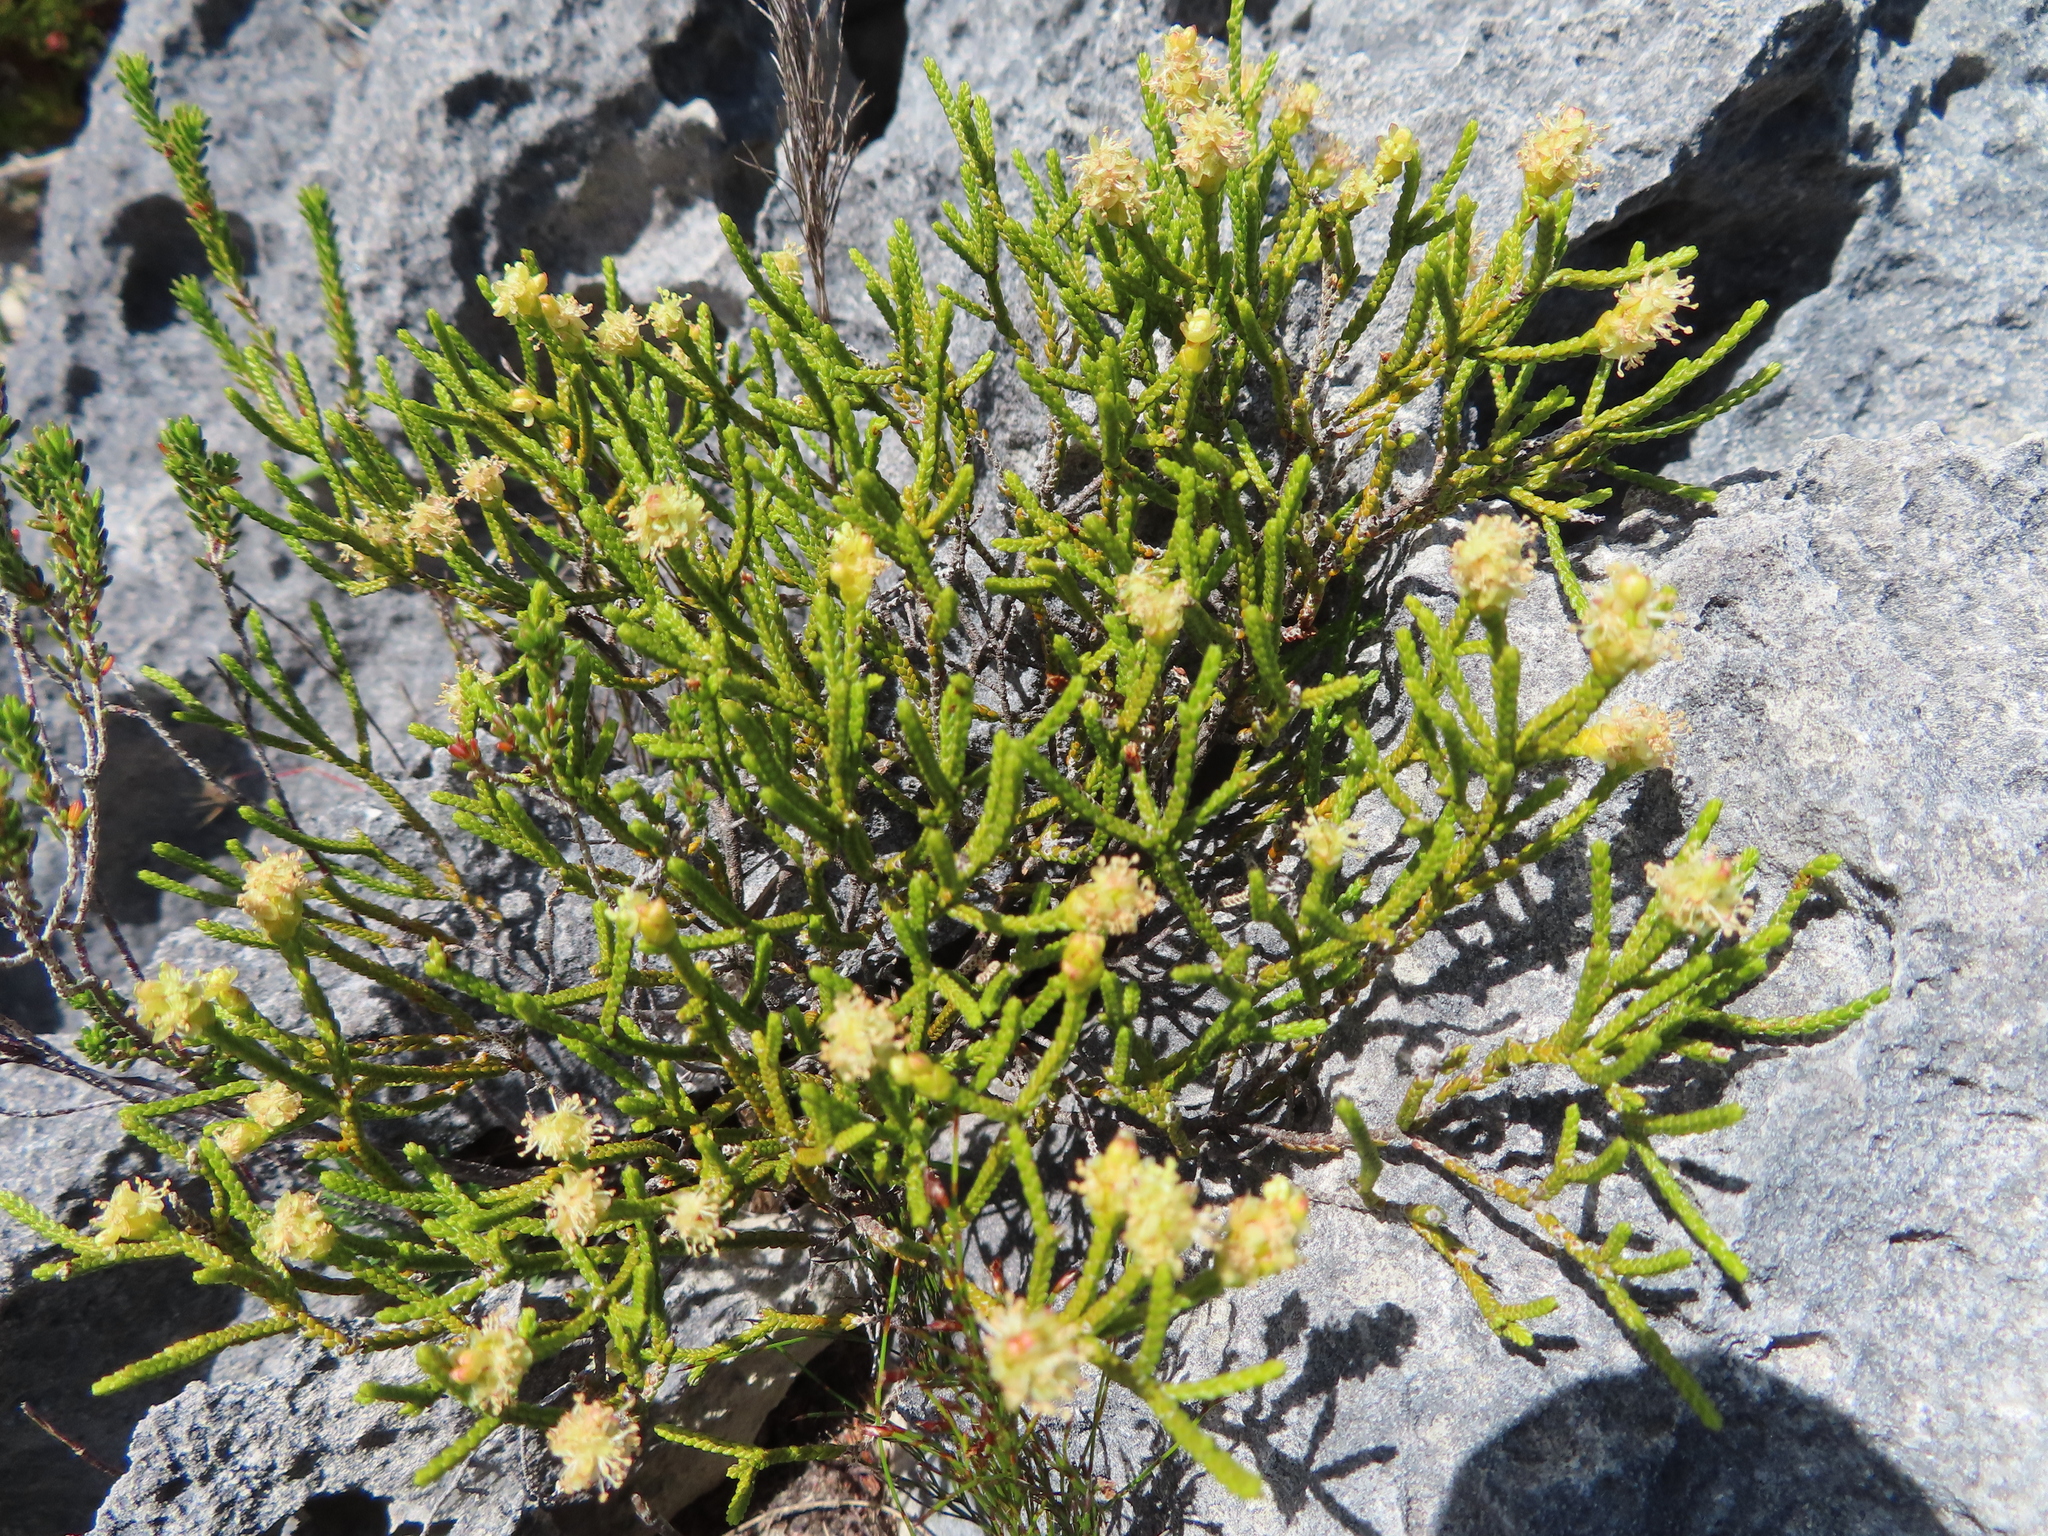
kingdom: Plantae
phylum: Tracheophyta
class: Magnoliopsida
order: Malvales
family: Thymelaeaceae
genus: Passerina
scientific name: Passerina paleacea
